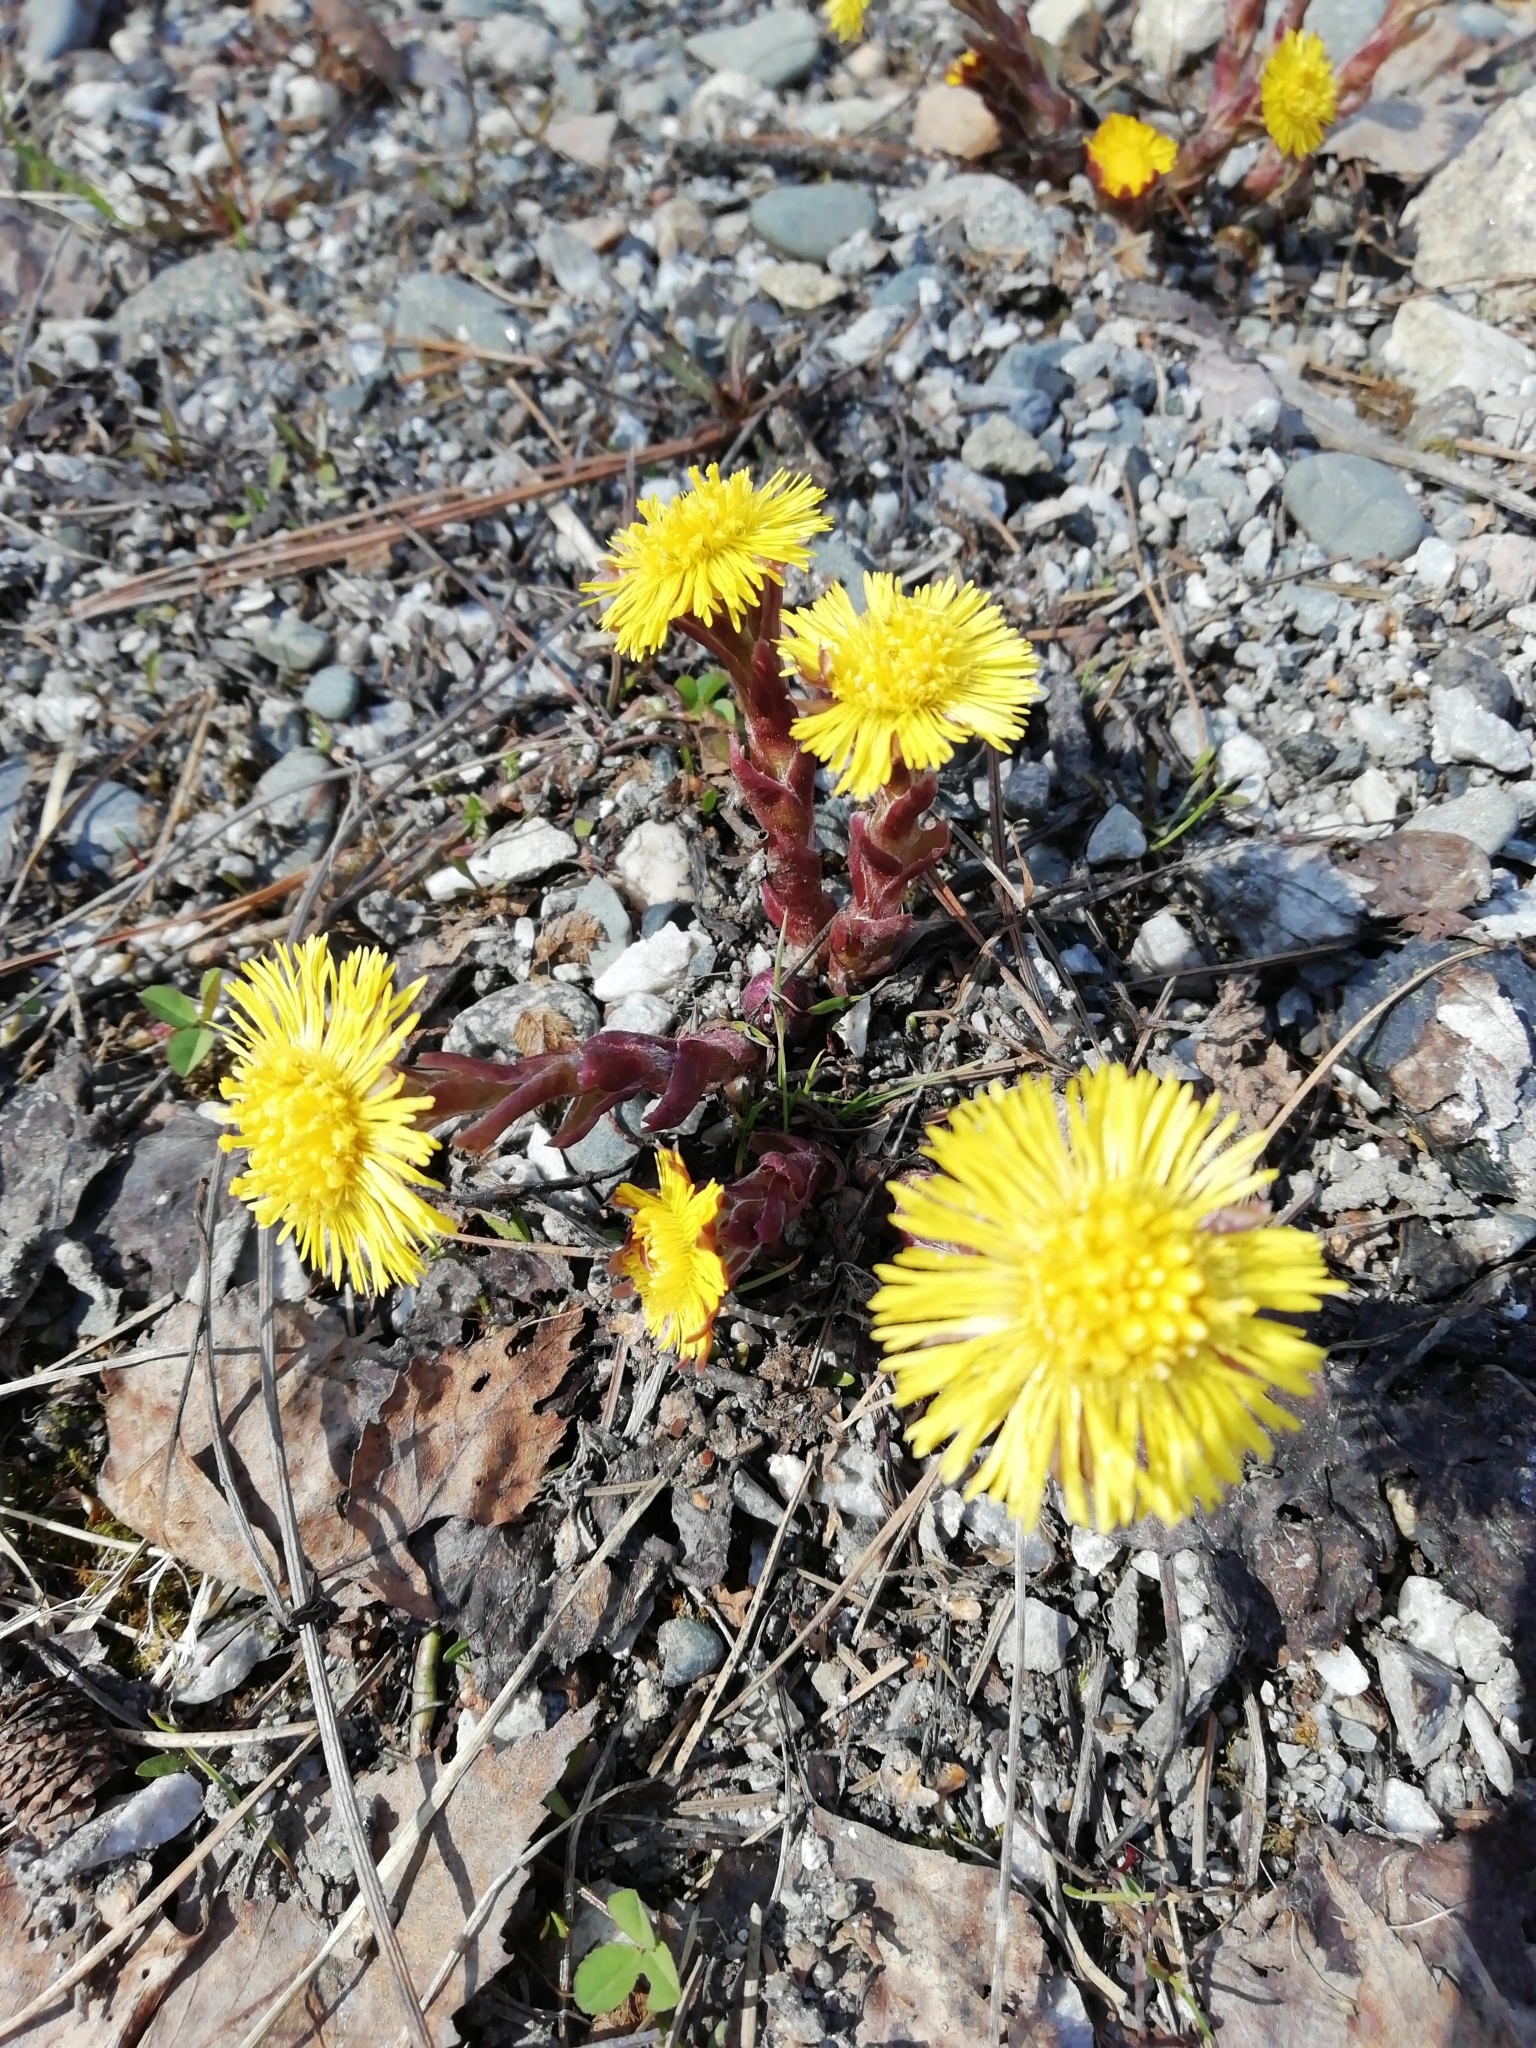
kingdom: Plantae
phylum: Tracheophyta
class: Magnoliopsida
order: Asterales
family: Asteraceae
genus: Tussilago
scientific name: Tussilago farfara
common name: Coltsfoot
